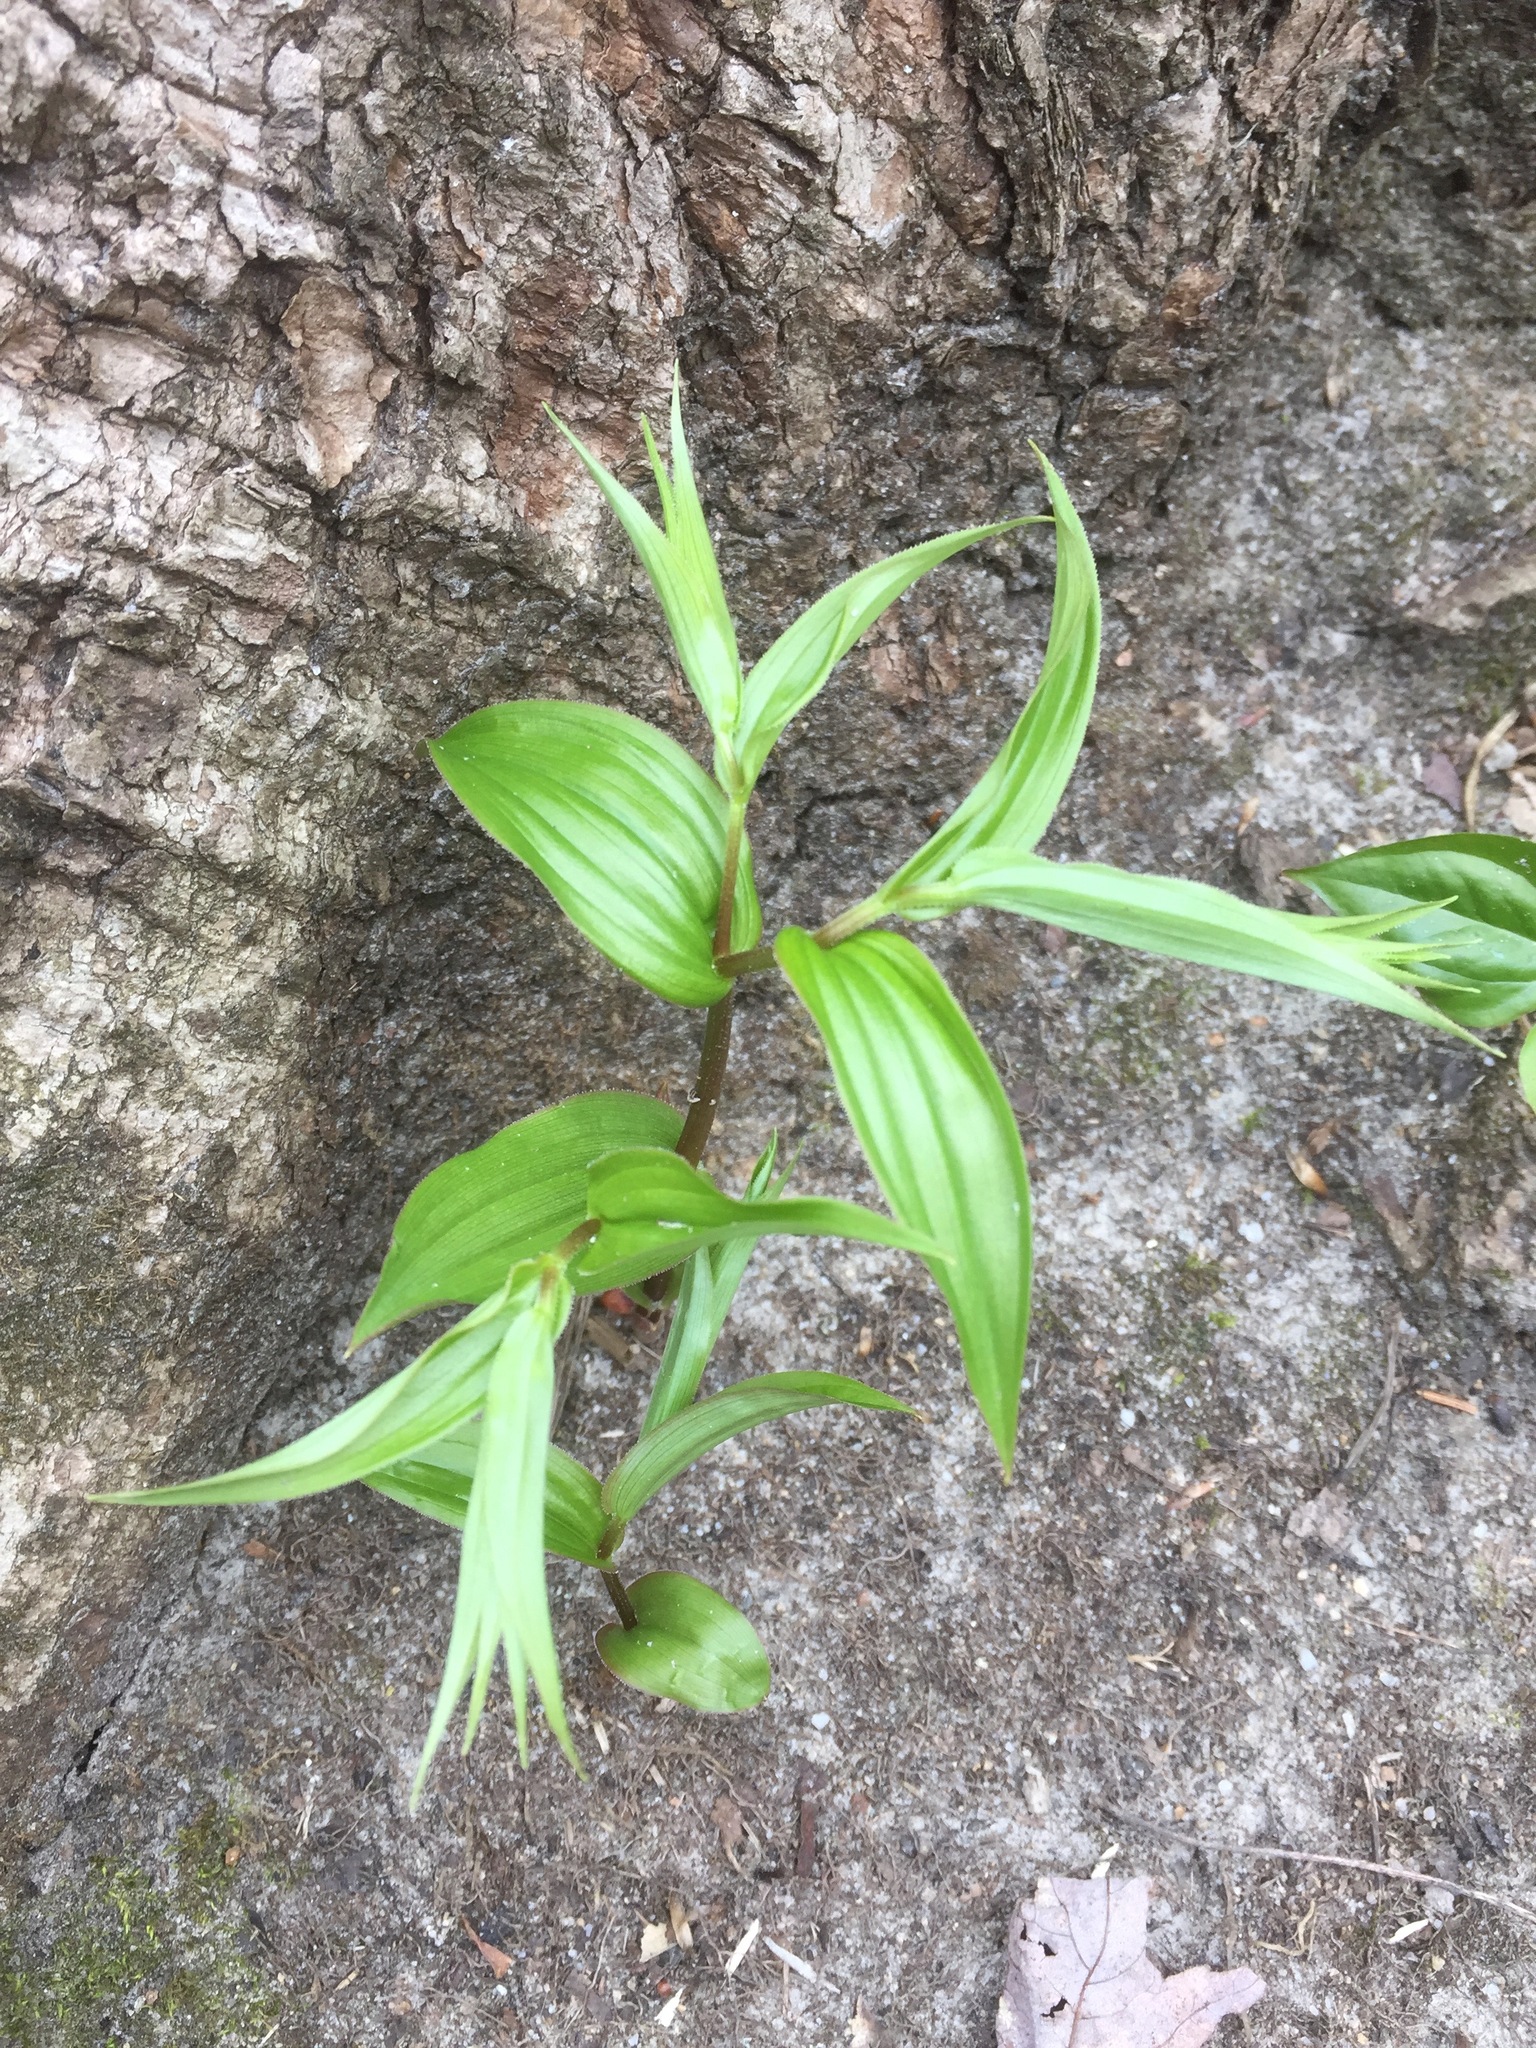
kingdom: Plantae
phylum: Tracheophyta
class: Liliopsida
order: Liliales
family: Liliaceae
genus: Streptopus
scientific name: Streptopus lanceolatus
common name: Rose mandarin
